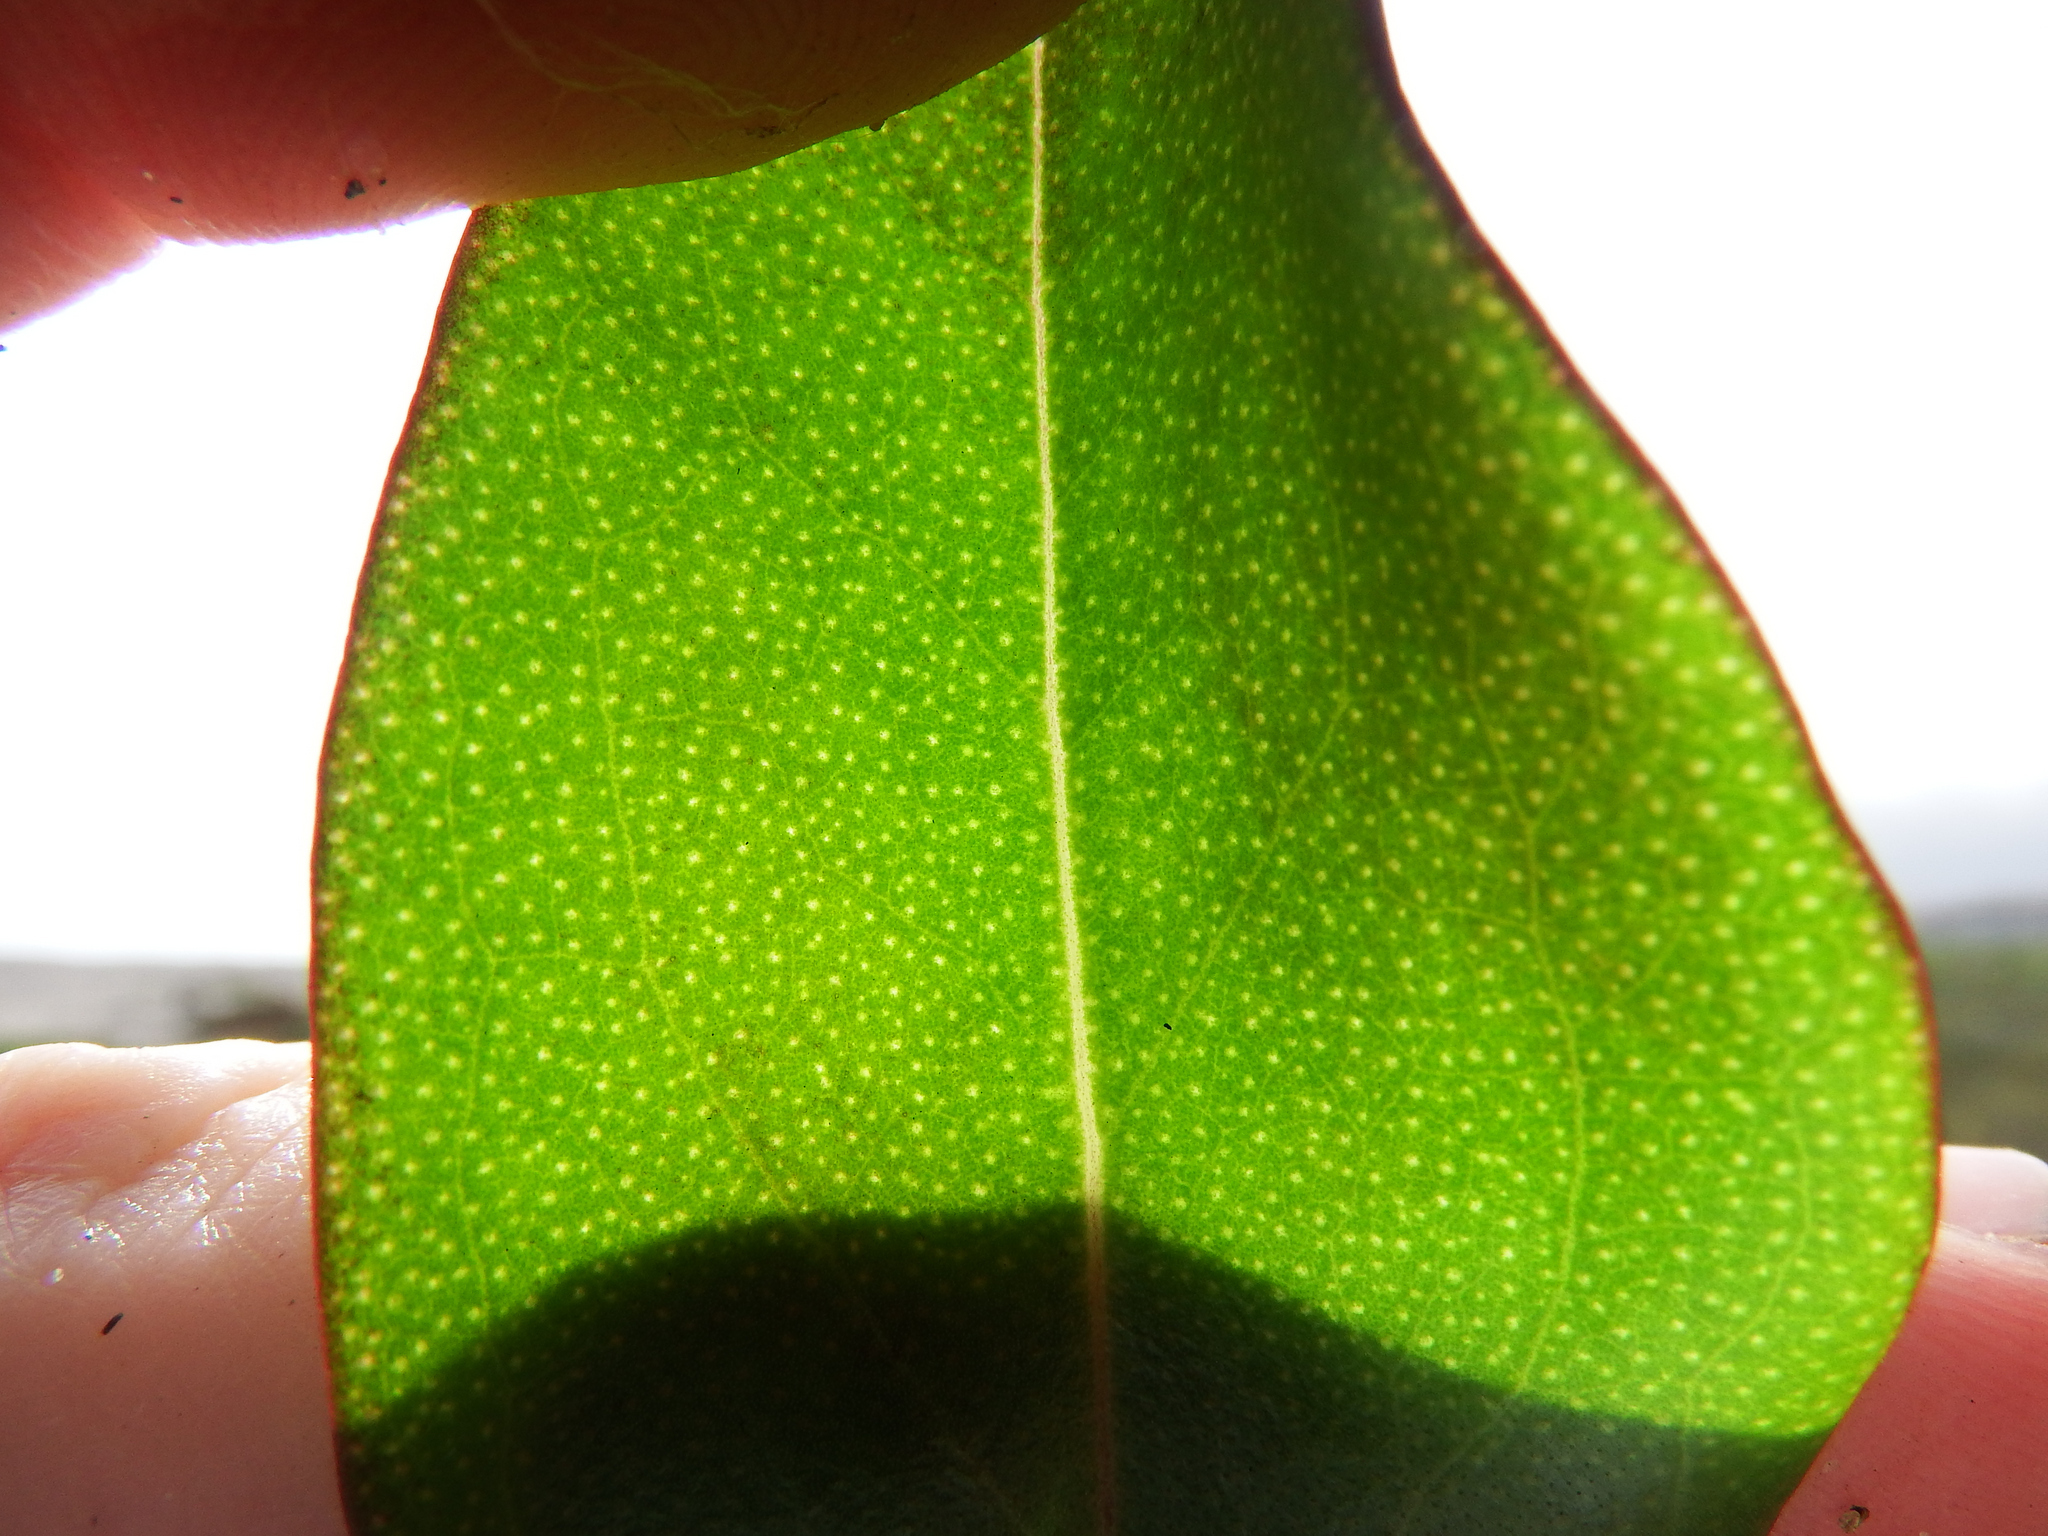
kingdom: Plantae
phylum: Tracheophyta
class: Magnoliopsida
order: Lamiales
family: Scrophulariaceae
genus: Myoporum
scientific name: Myoporum laetum
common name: Ngaio tree
